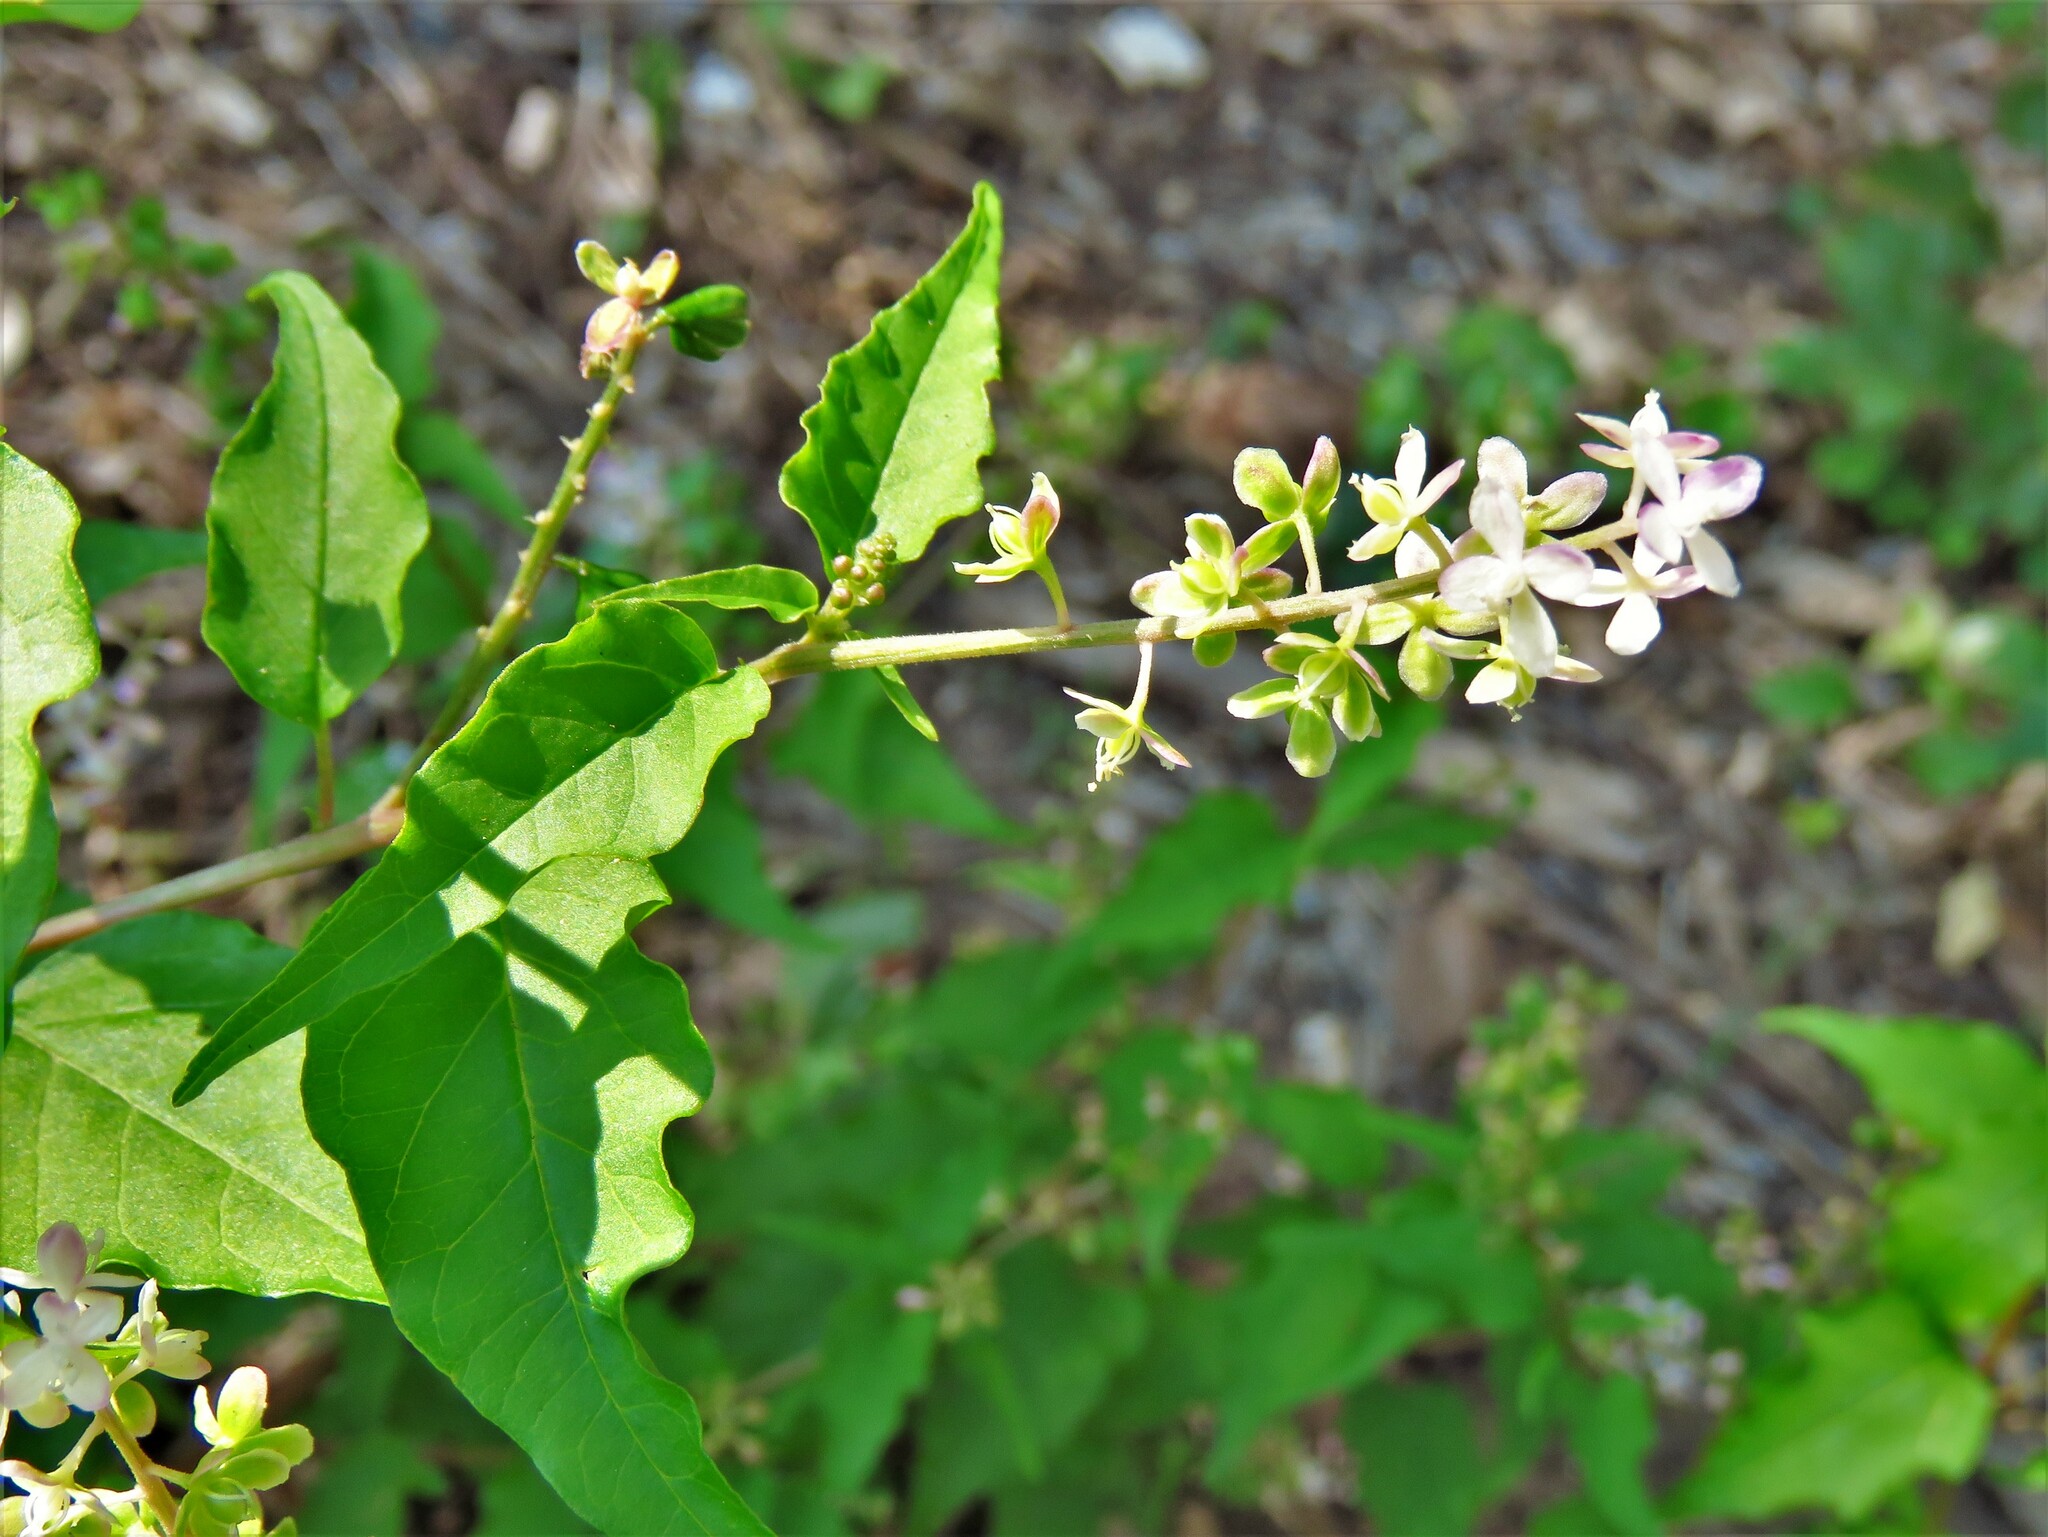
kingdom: Plantae
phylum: Tracheophyta
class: Magnoliopsida
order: Caryophyllales
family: Phytolaccaceae
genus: Rivina
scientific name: Rivina humilis
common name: Rougeplant
